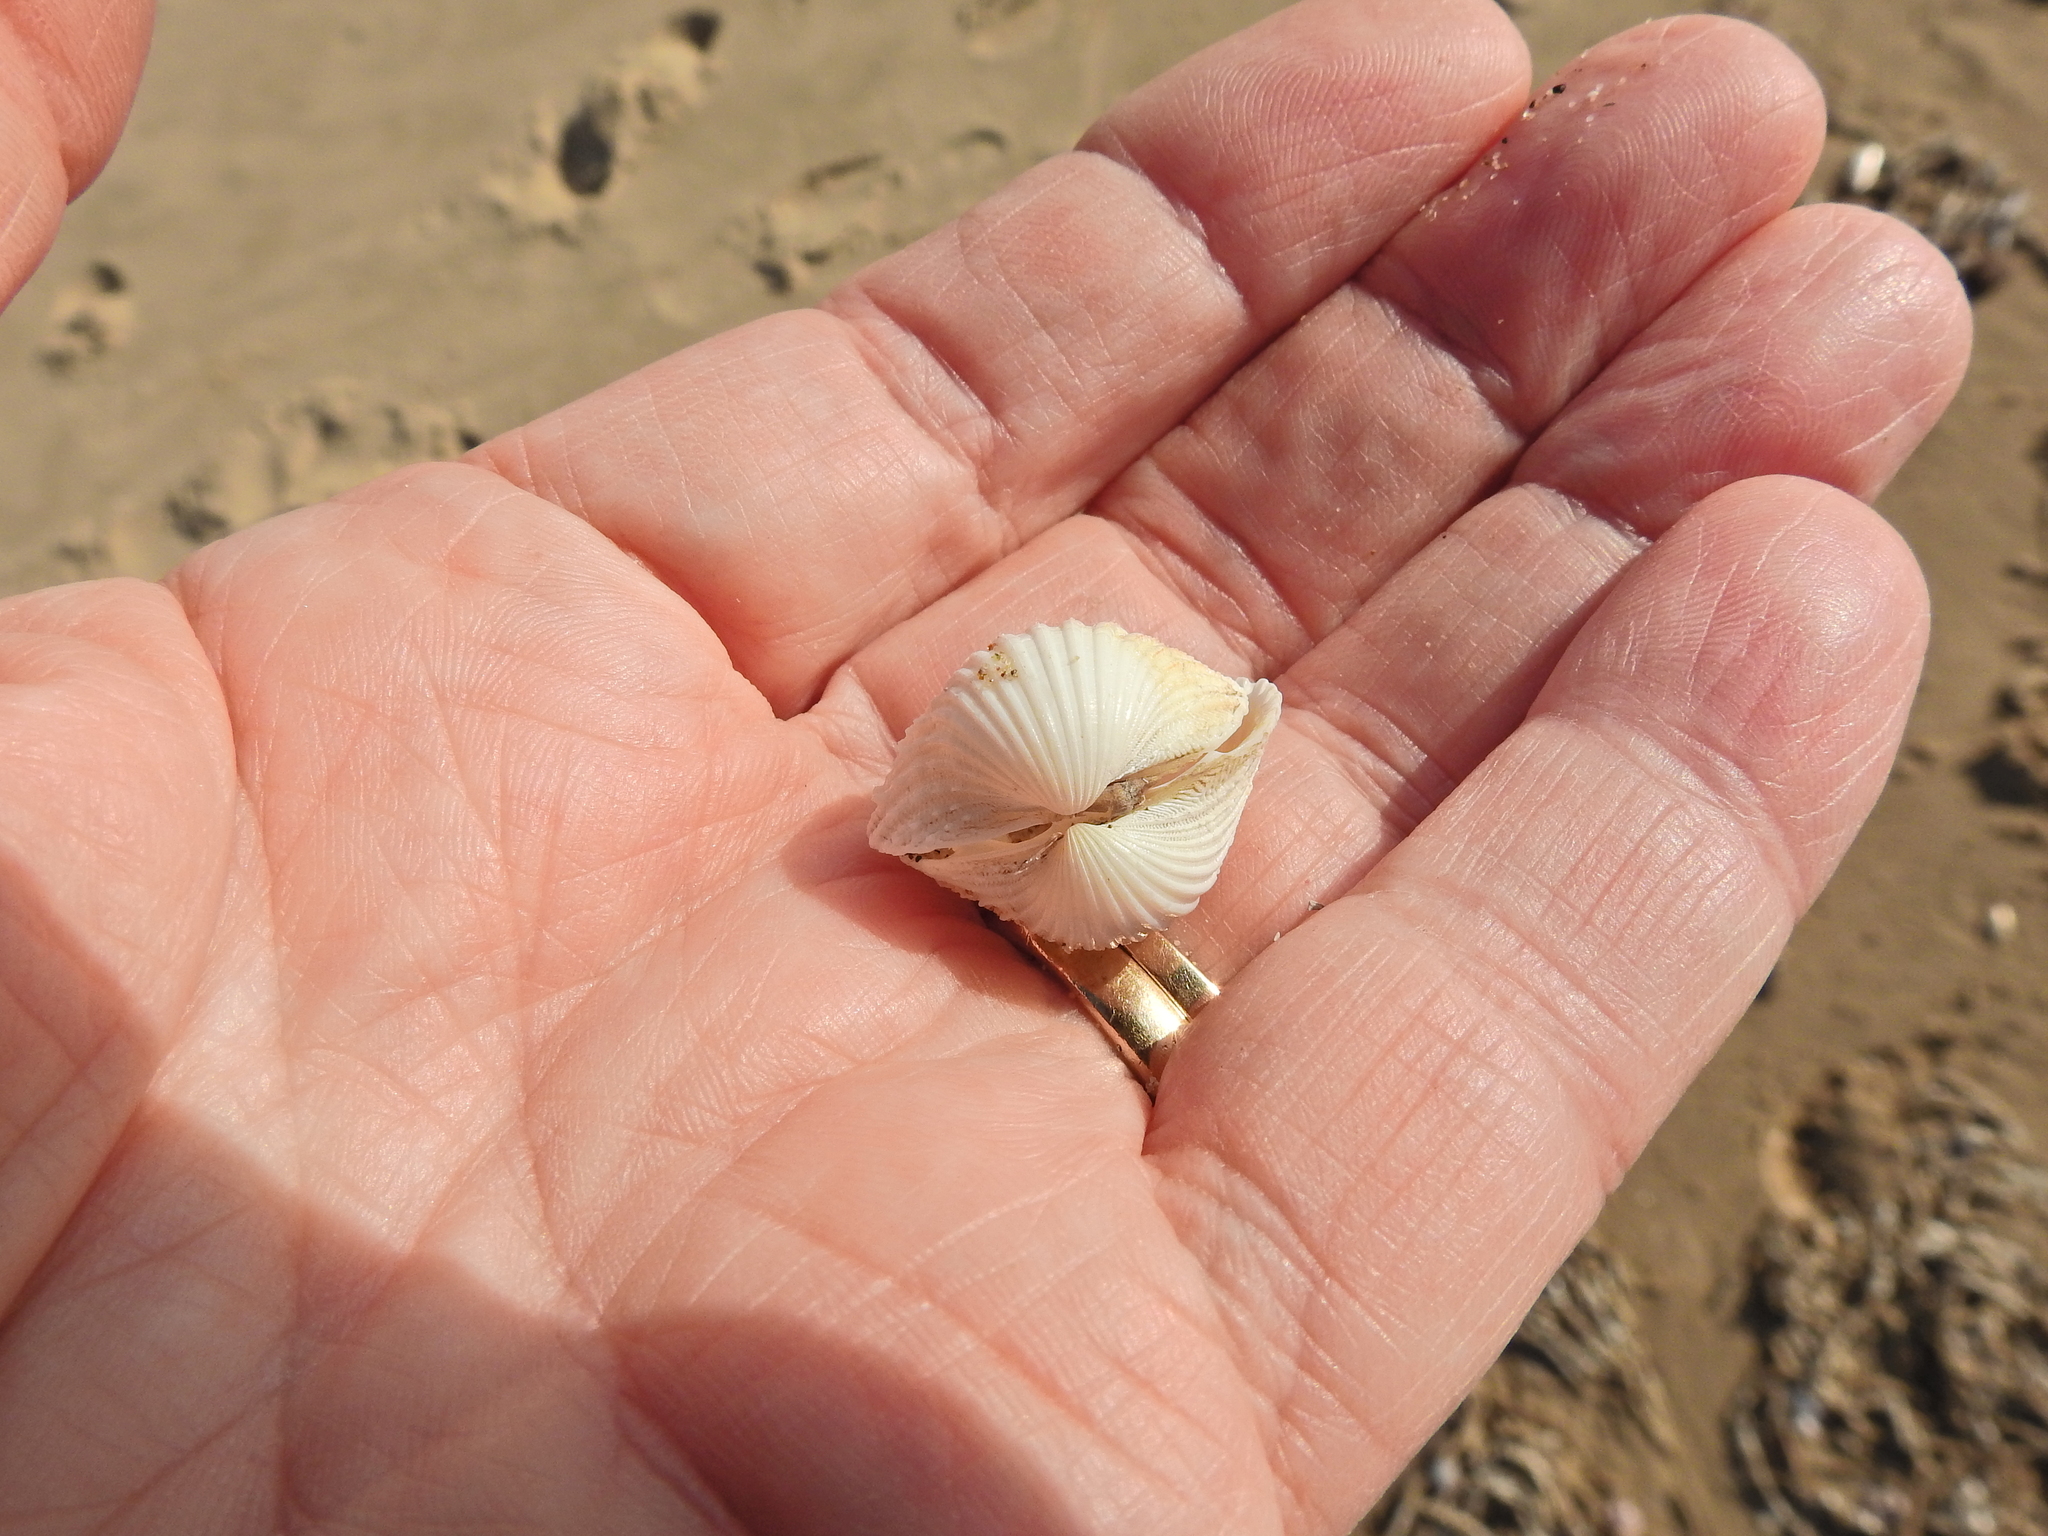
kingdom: Animalia
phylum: Mollusca
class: Bivalvia
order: Cardiida
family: Cardiidae
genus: Acanthocardia
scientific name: Acanthocardia echinata
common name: Prickly cockle
